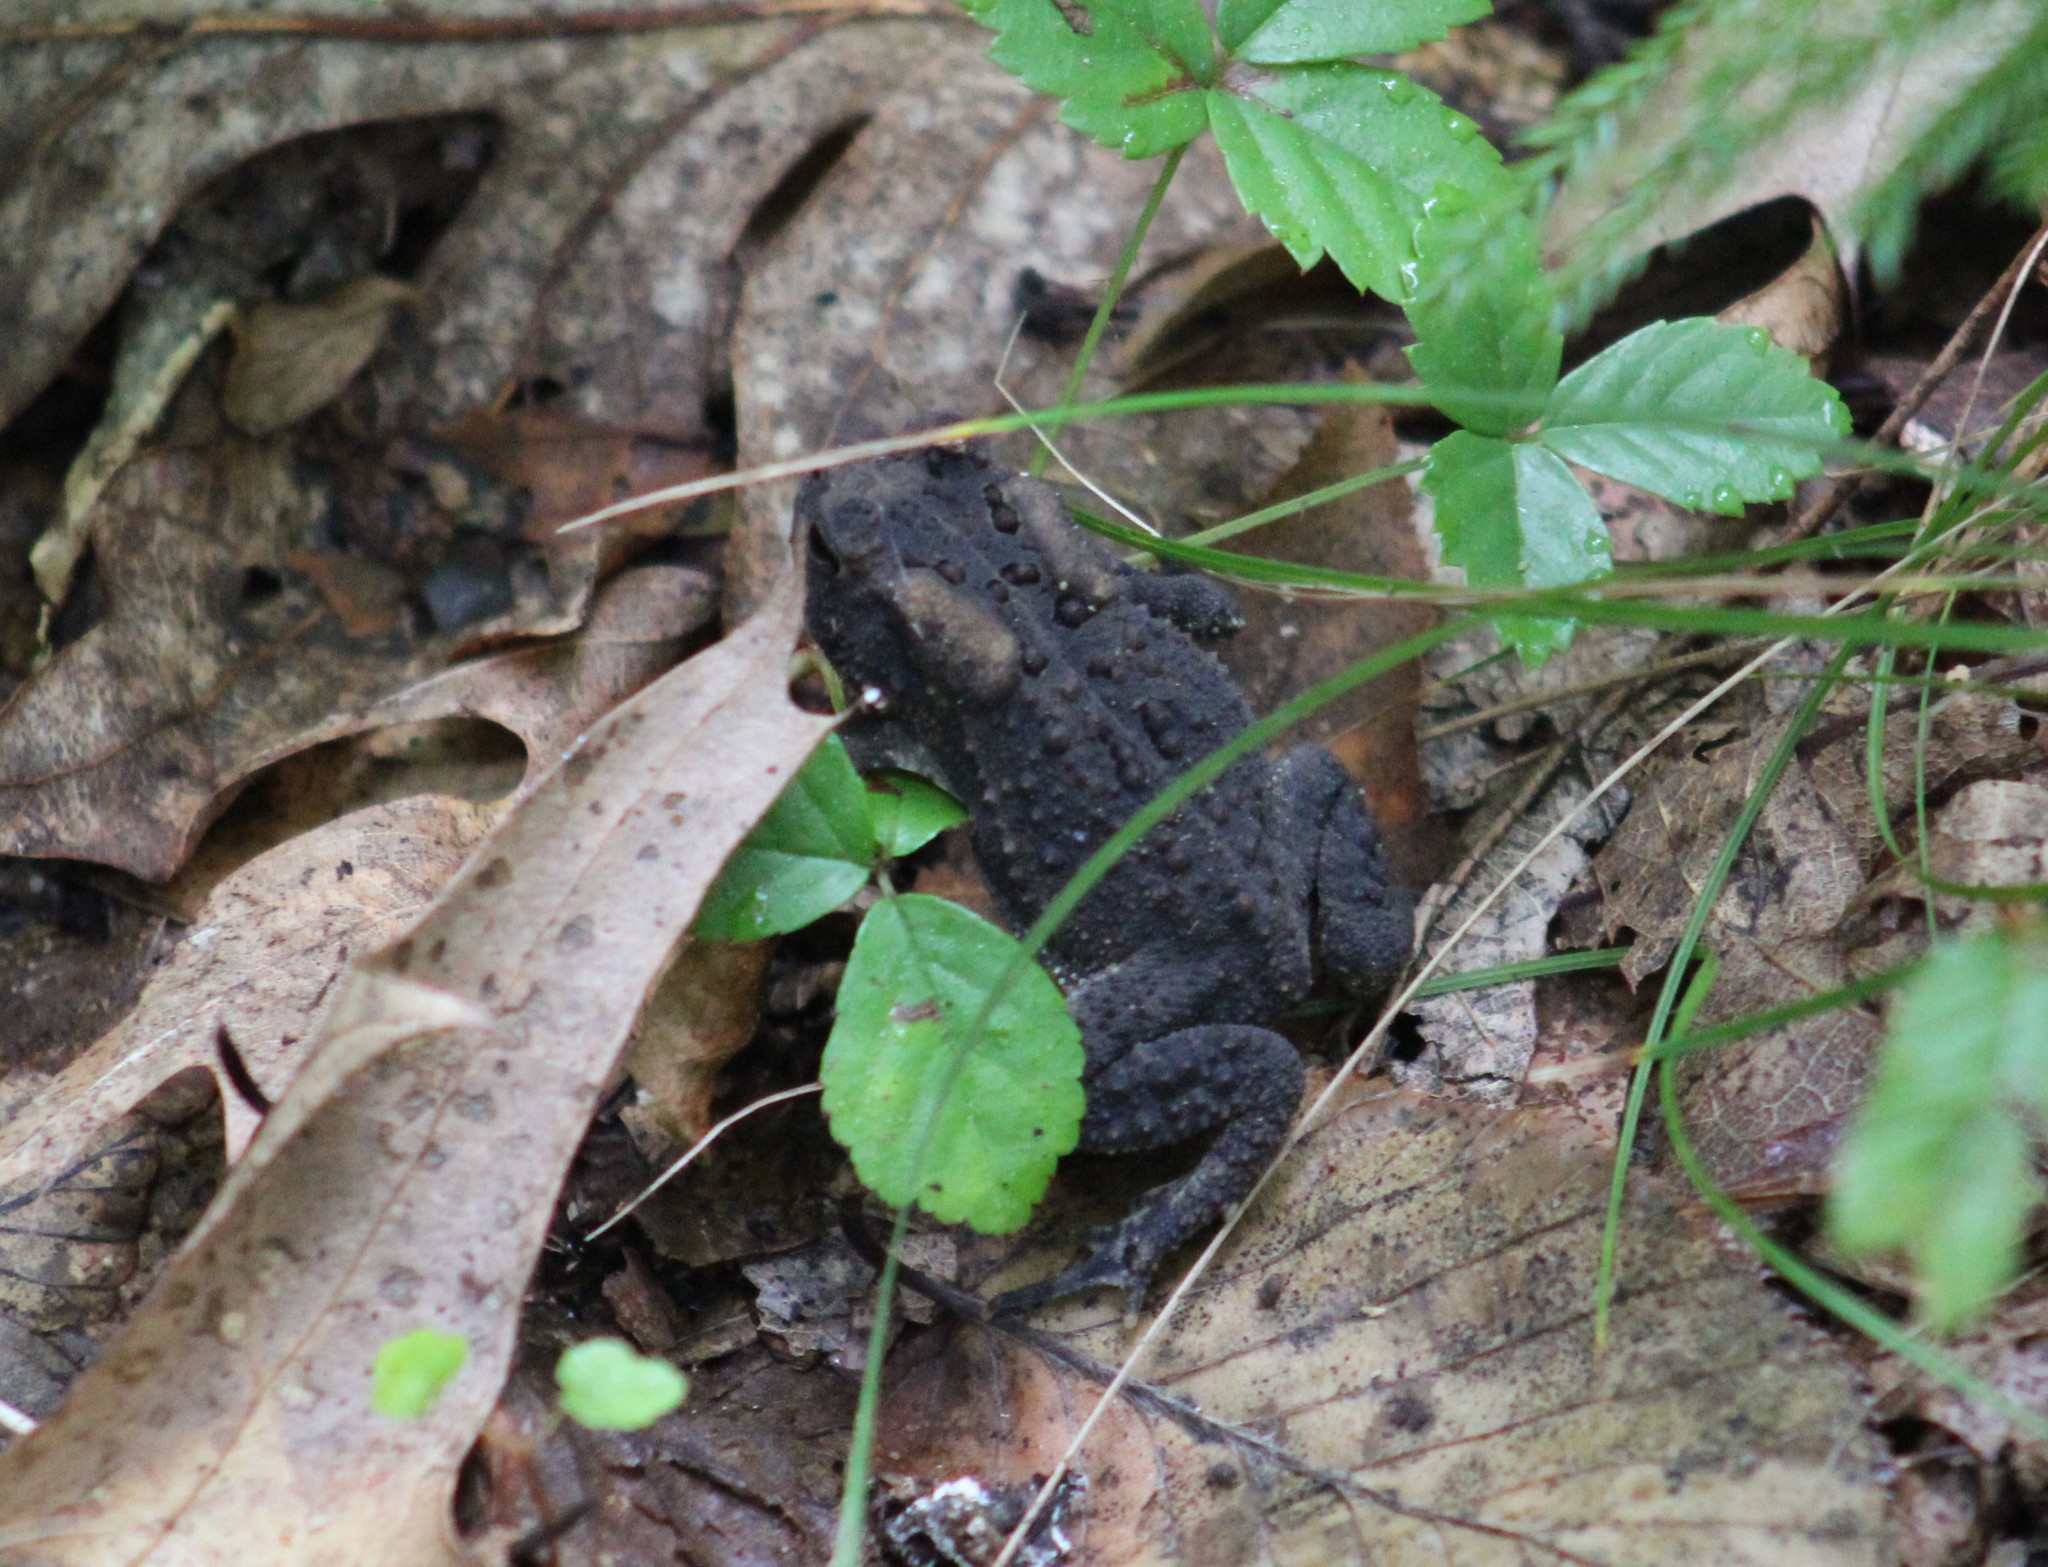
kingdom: Animalia
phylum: Chordata
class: Amphibia
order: Anura
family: Bufonidae
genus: Anaxyrus
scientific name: Anaxyrus americanus
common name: American toad
